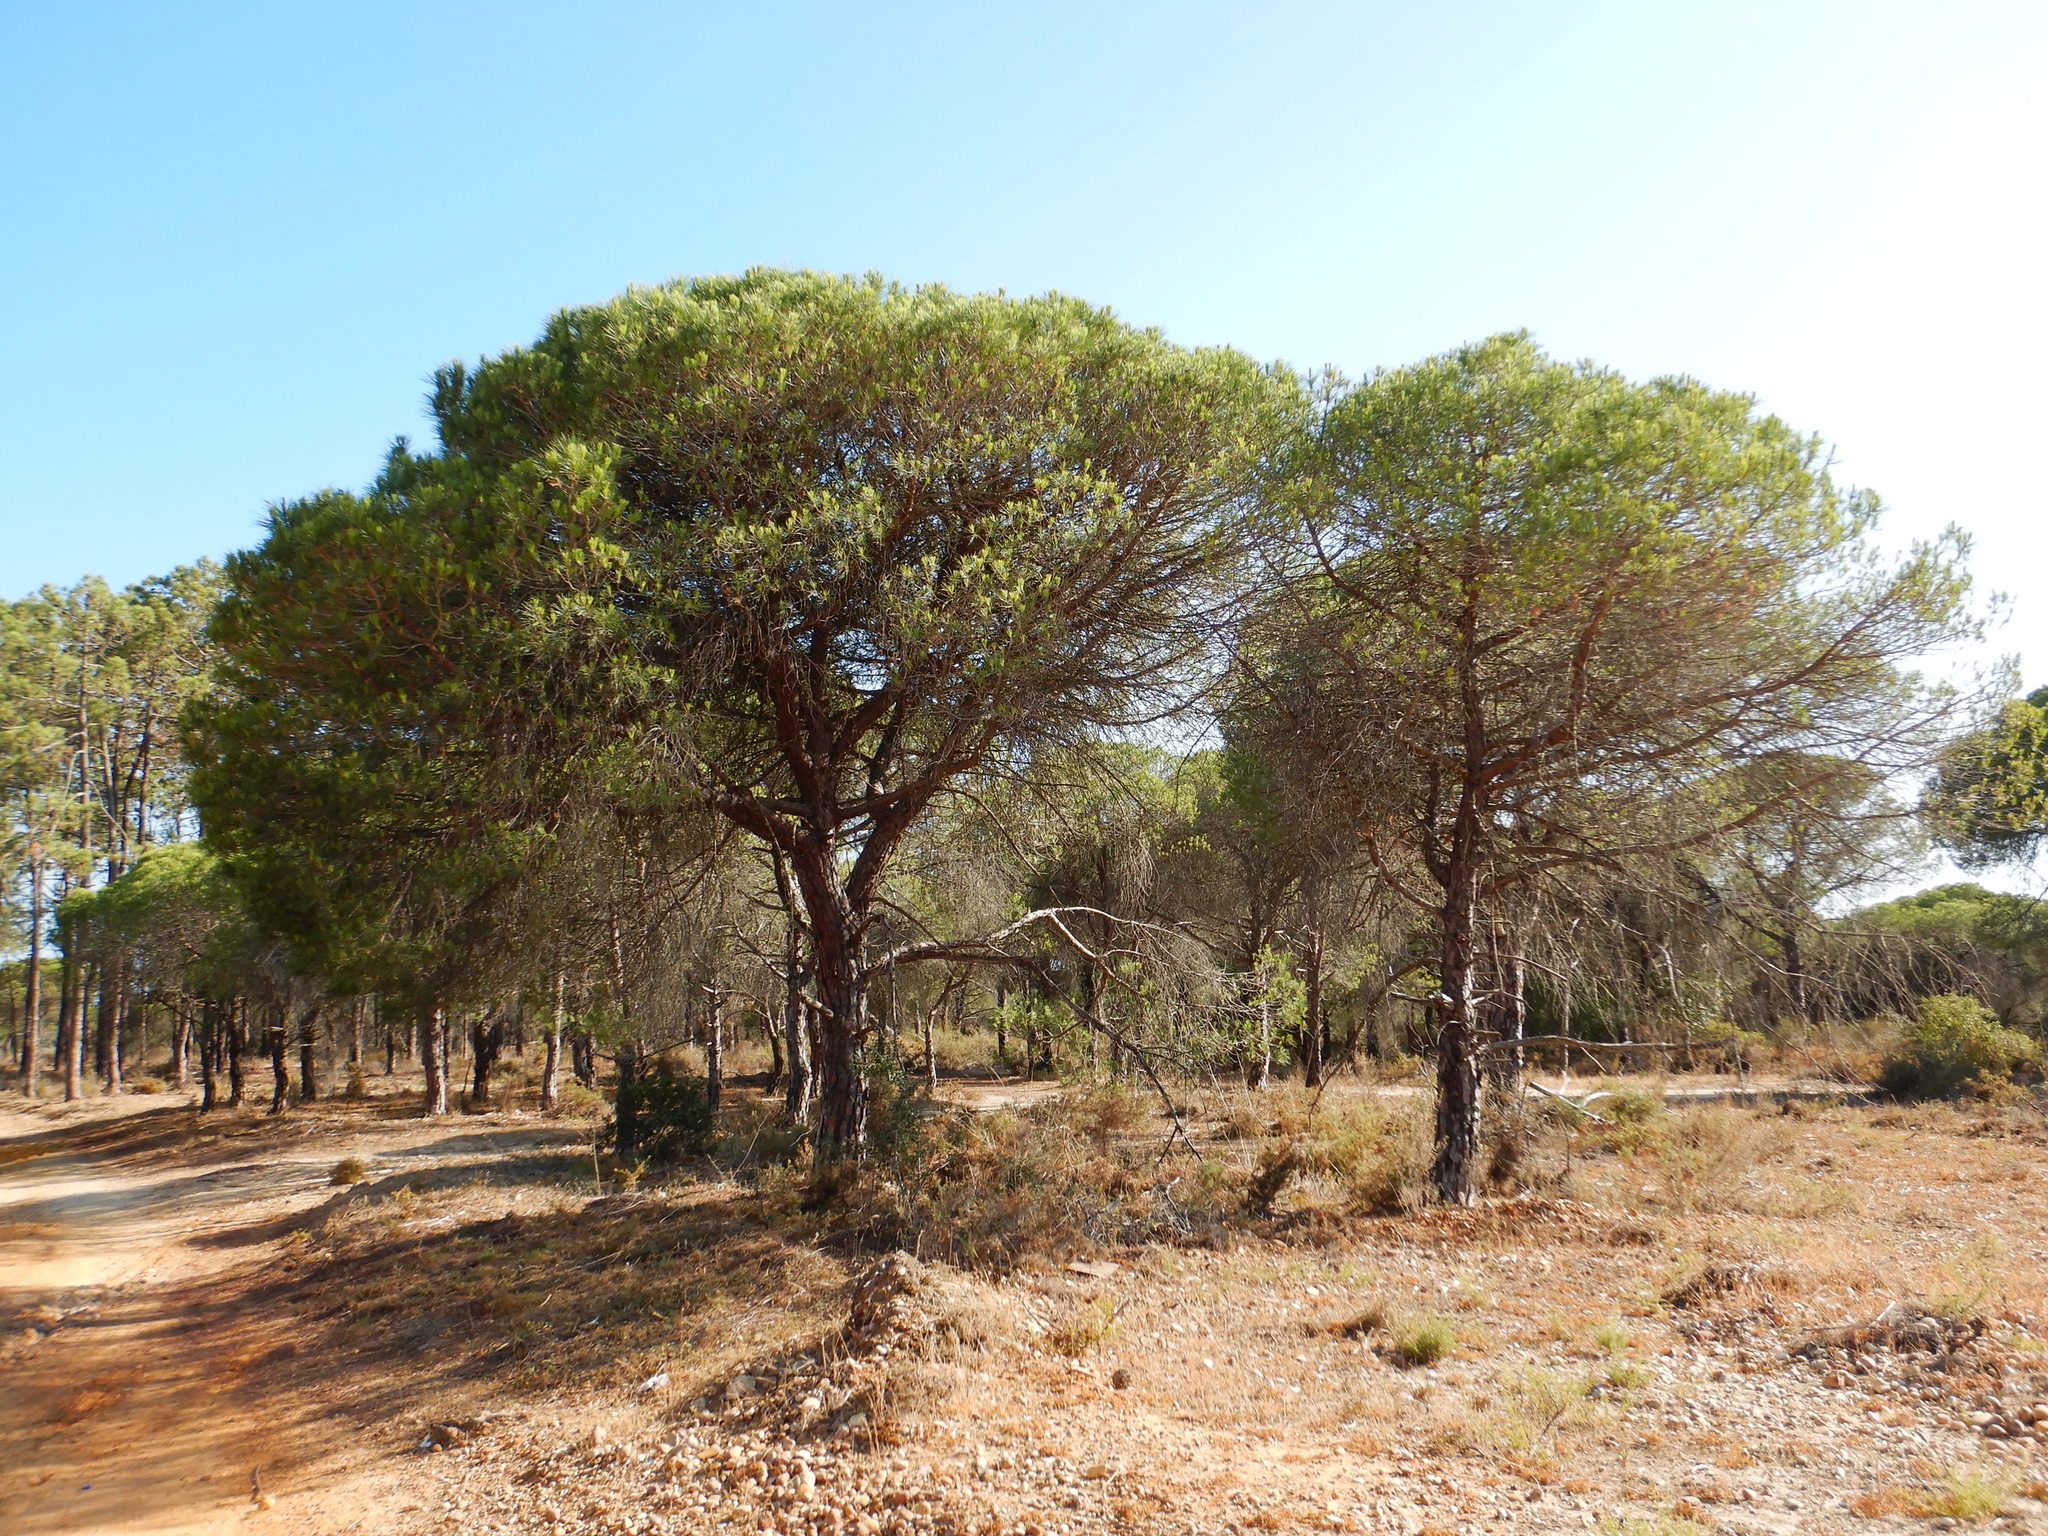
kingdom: Plantae
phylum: Tracheophyta
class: Pinopsida
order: Pinales
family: Pinaceae
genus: Pinus
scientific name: Pinus pinea
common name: Italian stone pine
